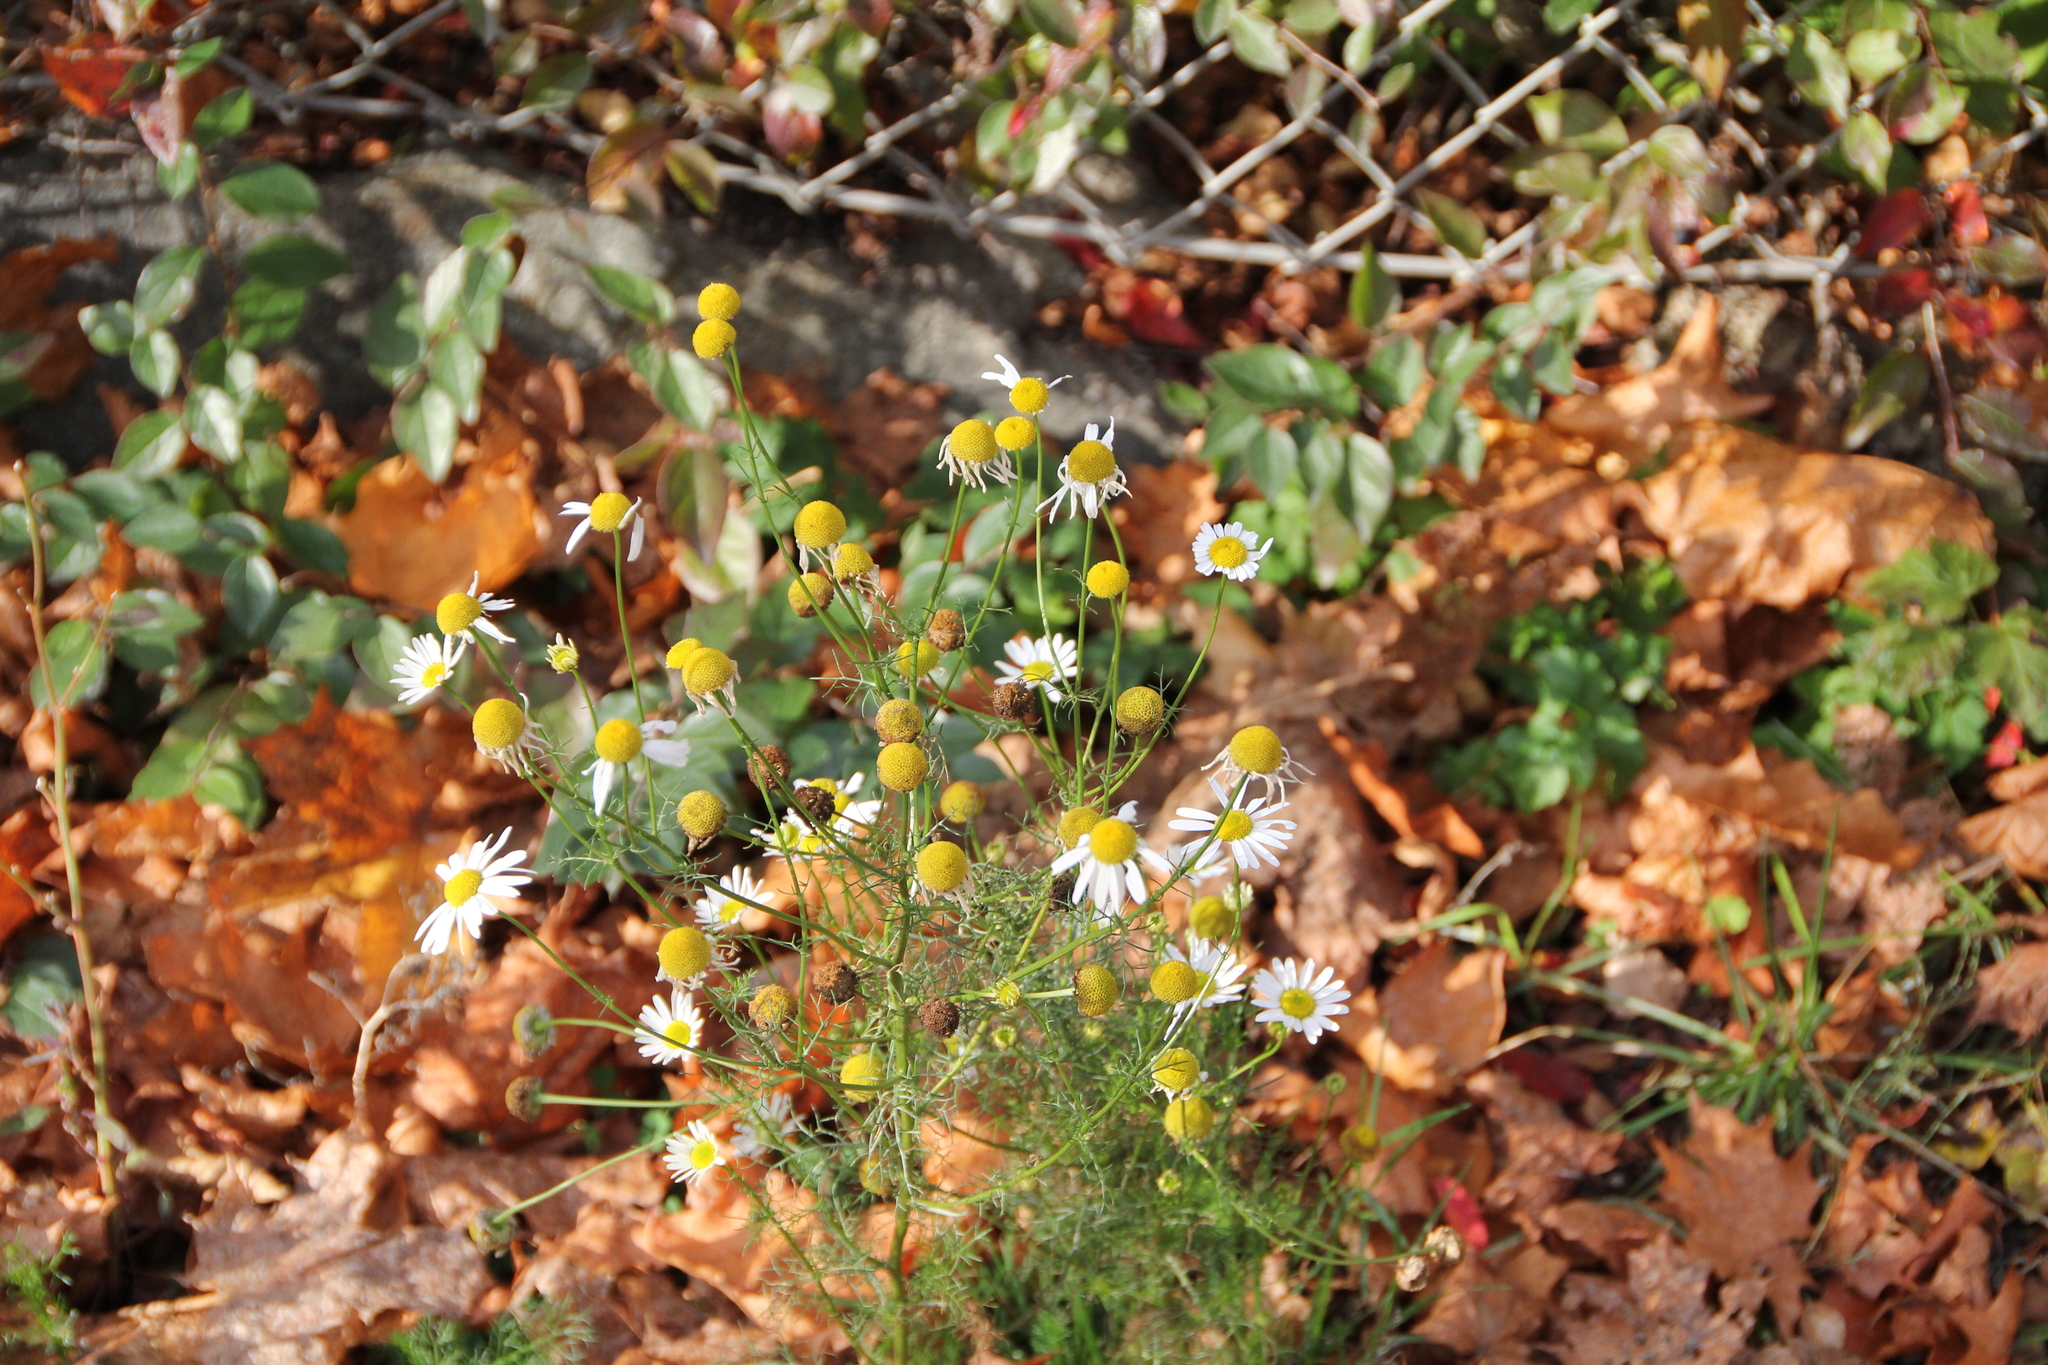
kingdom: Plantae
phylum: Tracheophyta
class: Magnoliopsida
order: Asterales
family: Asteraceae
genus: Tripleurospermum
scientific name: Tripleurospermum inodorum
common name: Scentless mayweed
